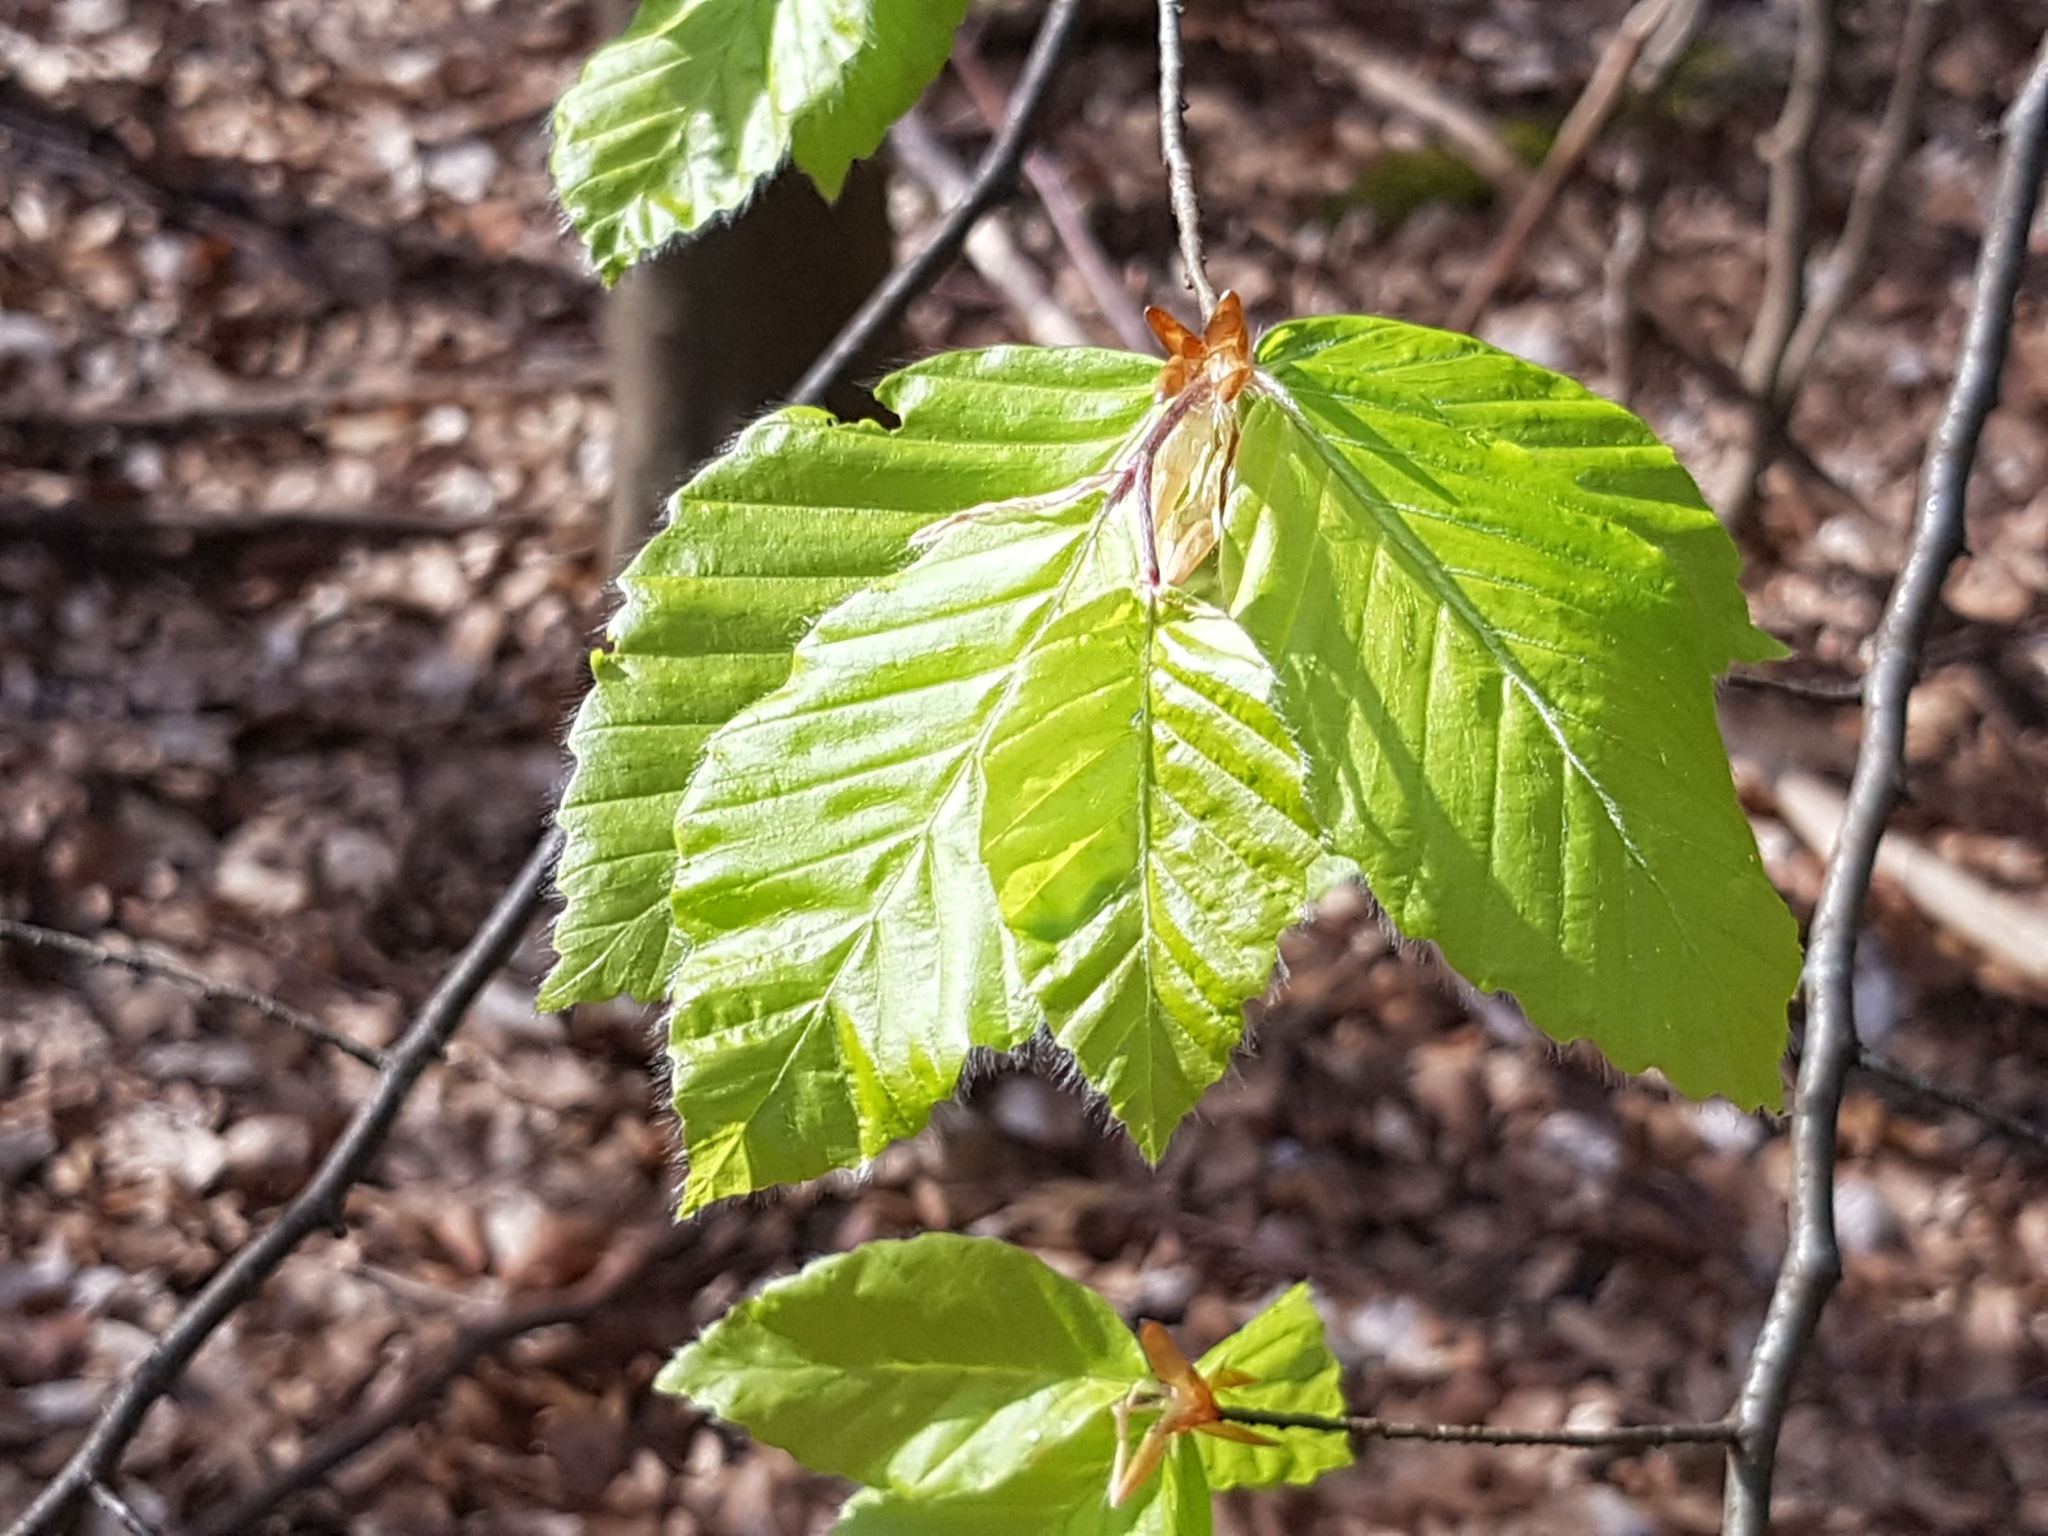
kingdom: Plantae
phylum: Tracheophyta
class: Magnoliopsida
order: Fagales
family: Fagaceae
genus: Fagus
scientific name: Fagus sylvatica
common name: Beech
